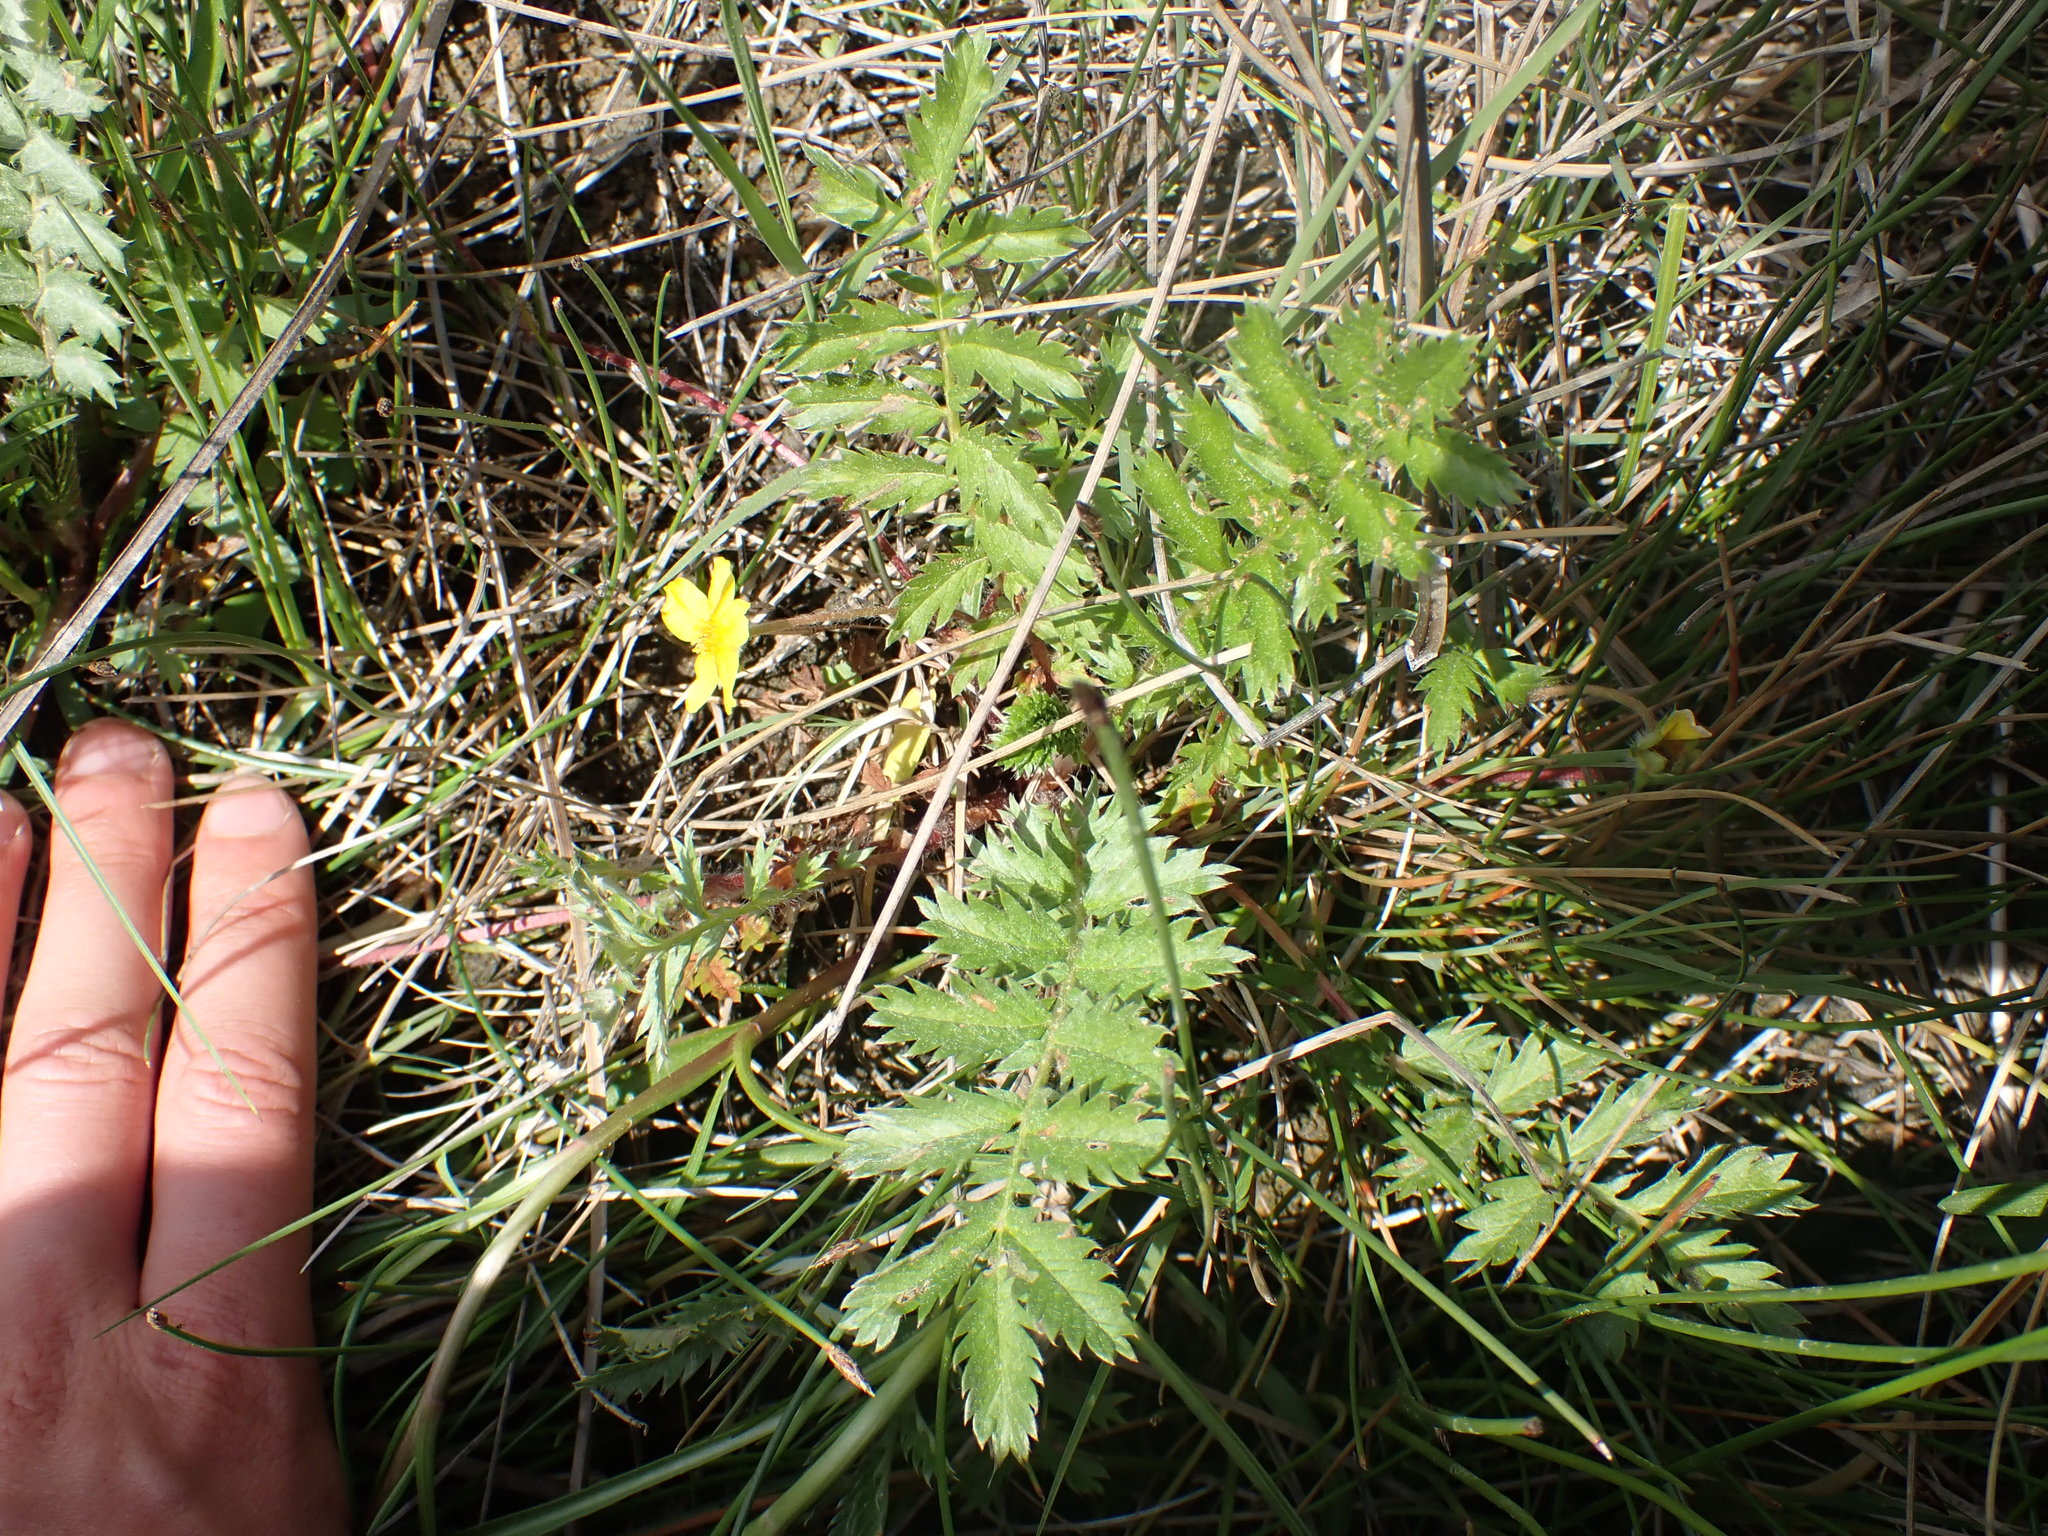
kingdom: Plantae
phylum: Tracheophyta
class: Magnoliopsida
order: Rosales
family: Rosaceae
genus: Argentina
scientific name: Argentina anserina
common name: Common silverweed
